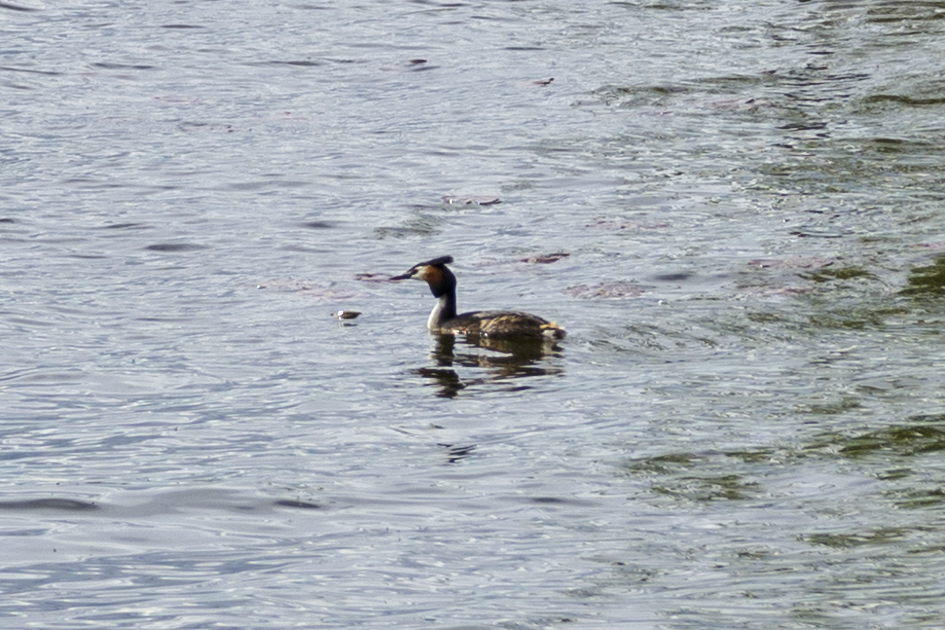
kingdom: Animalia
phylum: Chordata
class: Aves
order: Podicipediformes
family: Podicipedidae
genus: Podiceps
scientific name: Podiceps cristatus
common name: Great crested grebe
